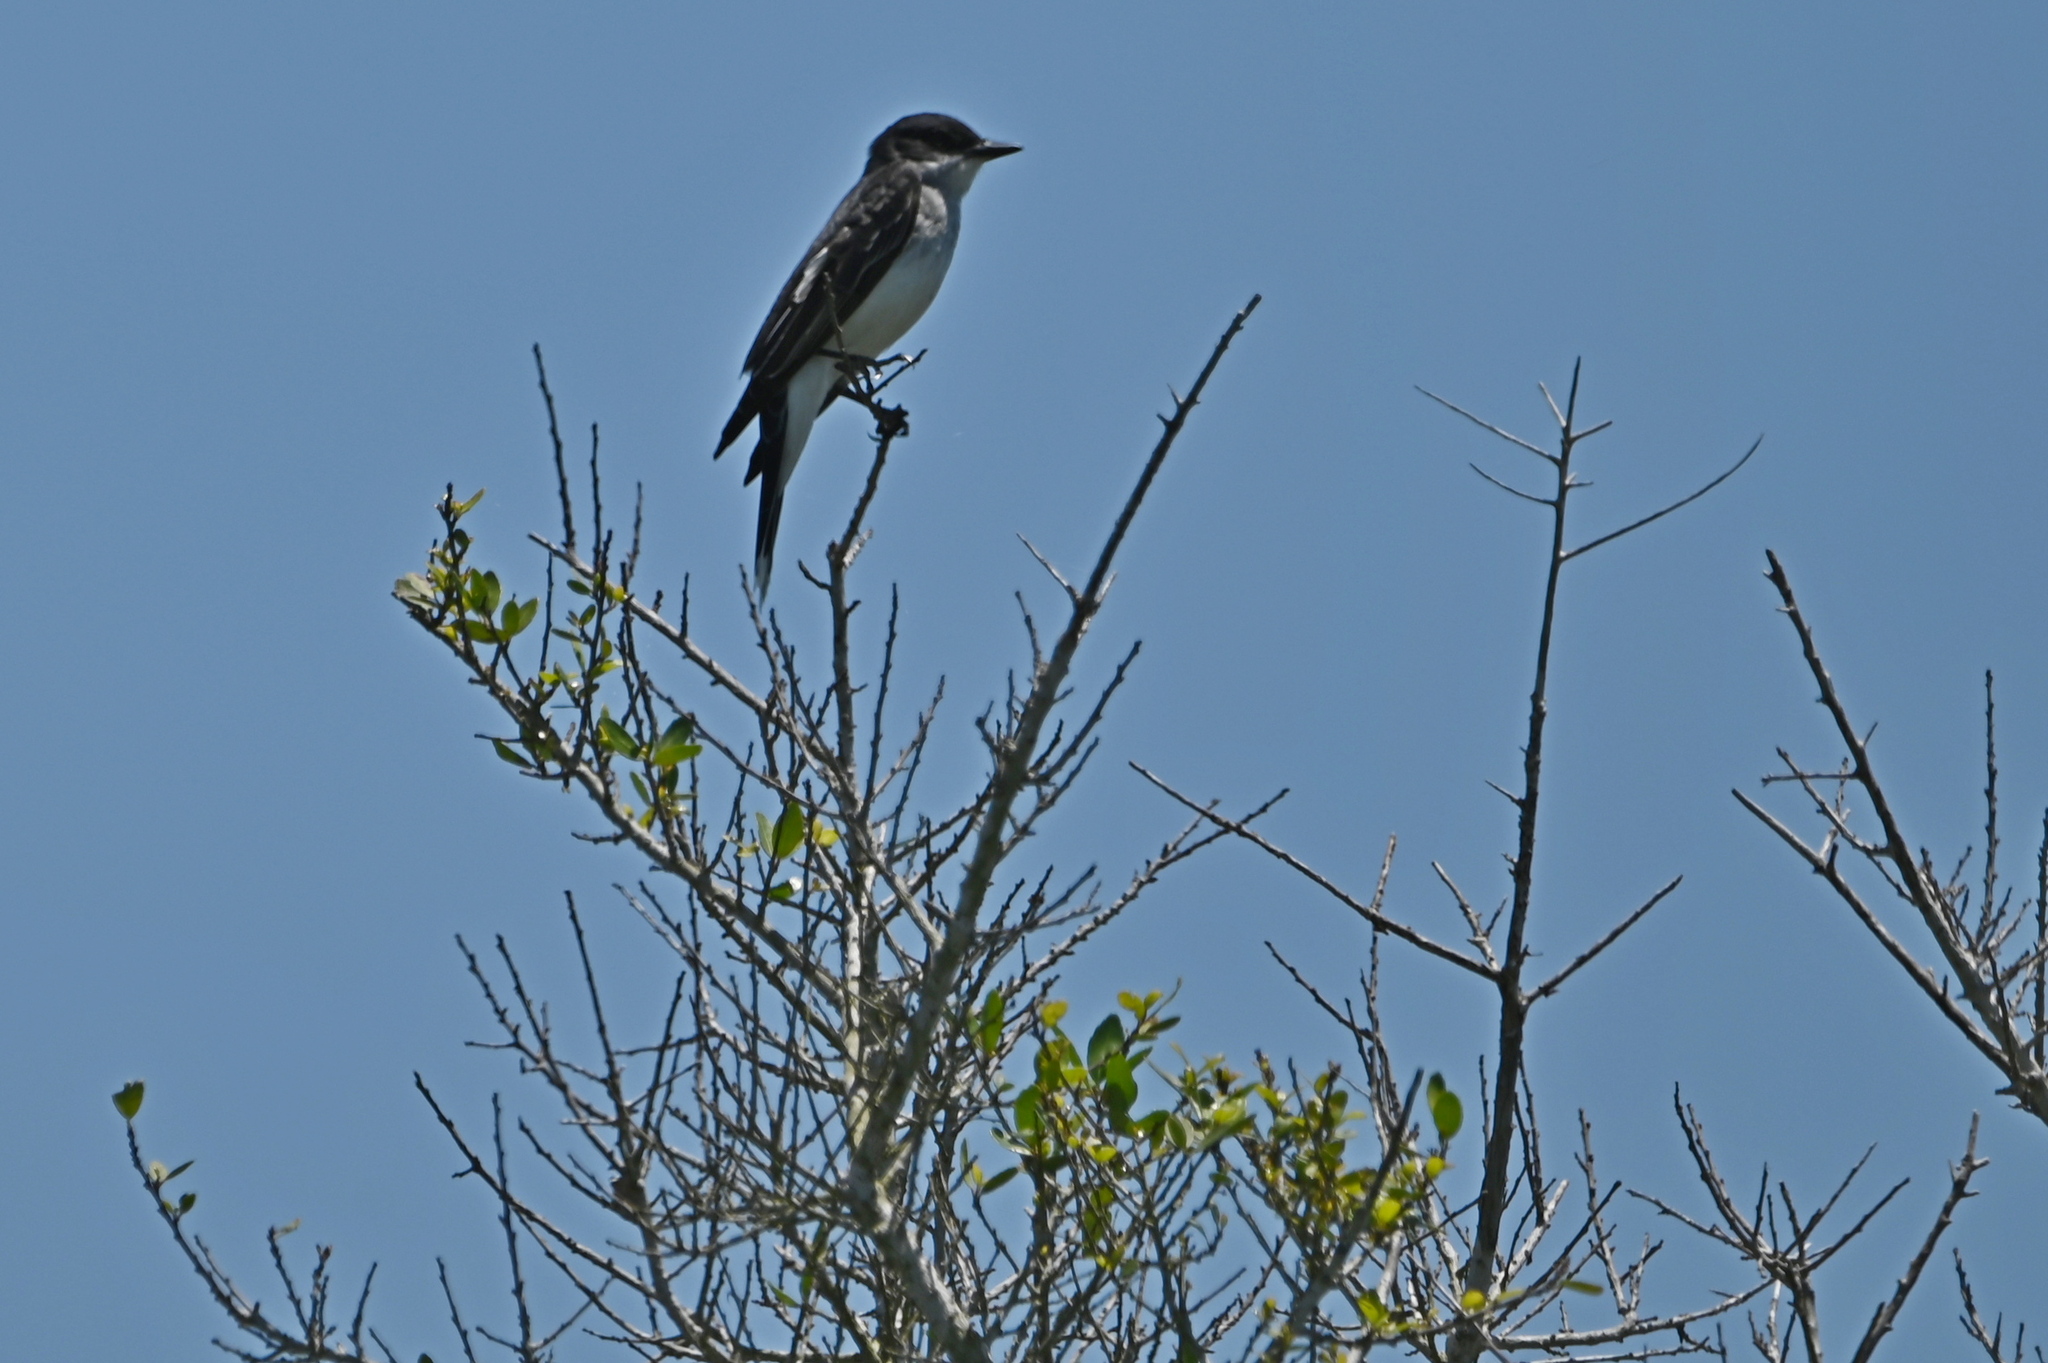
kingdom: Animalia
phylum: Chordata
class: Aves
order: Passeriformes
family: Tyrannidae
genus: Tyrannus
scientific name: Tyrannus tyrannus
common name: Eastern kingbird
